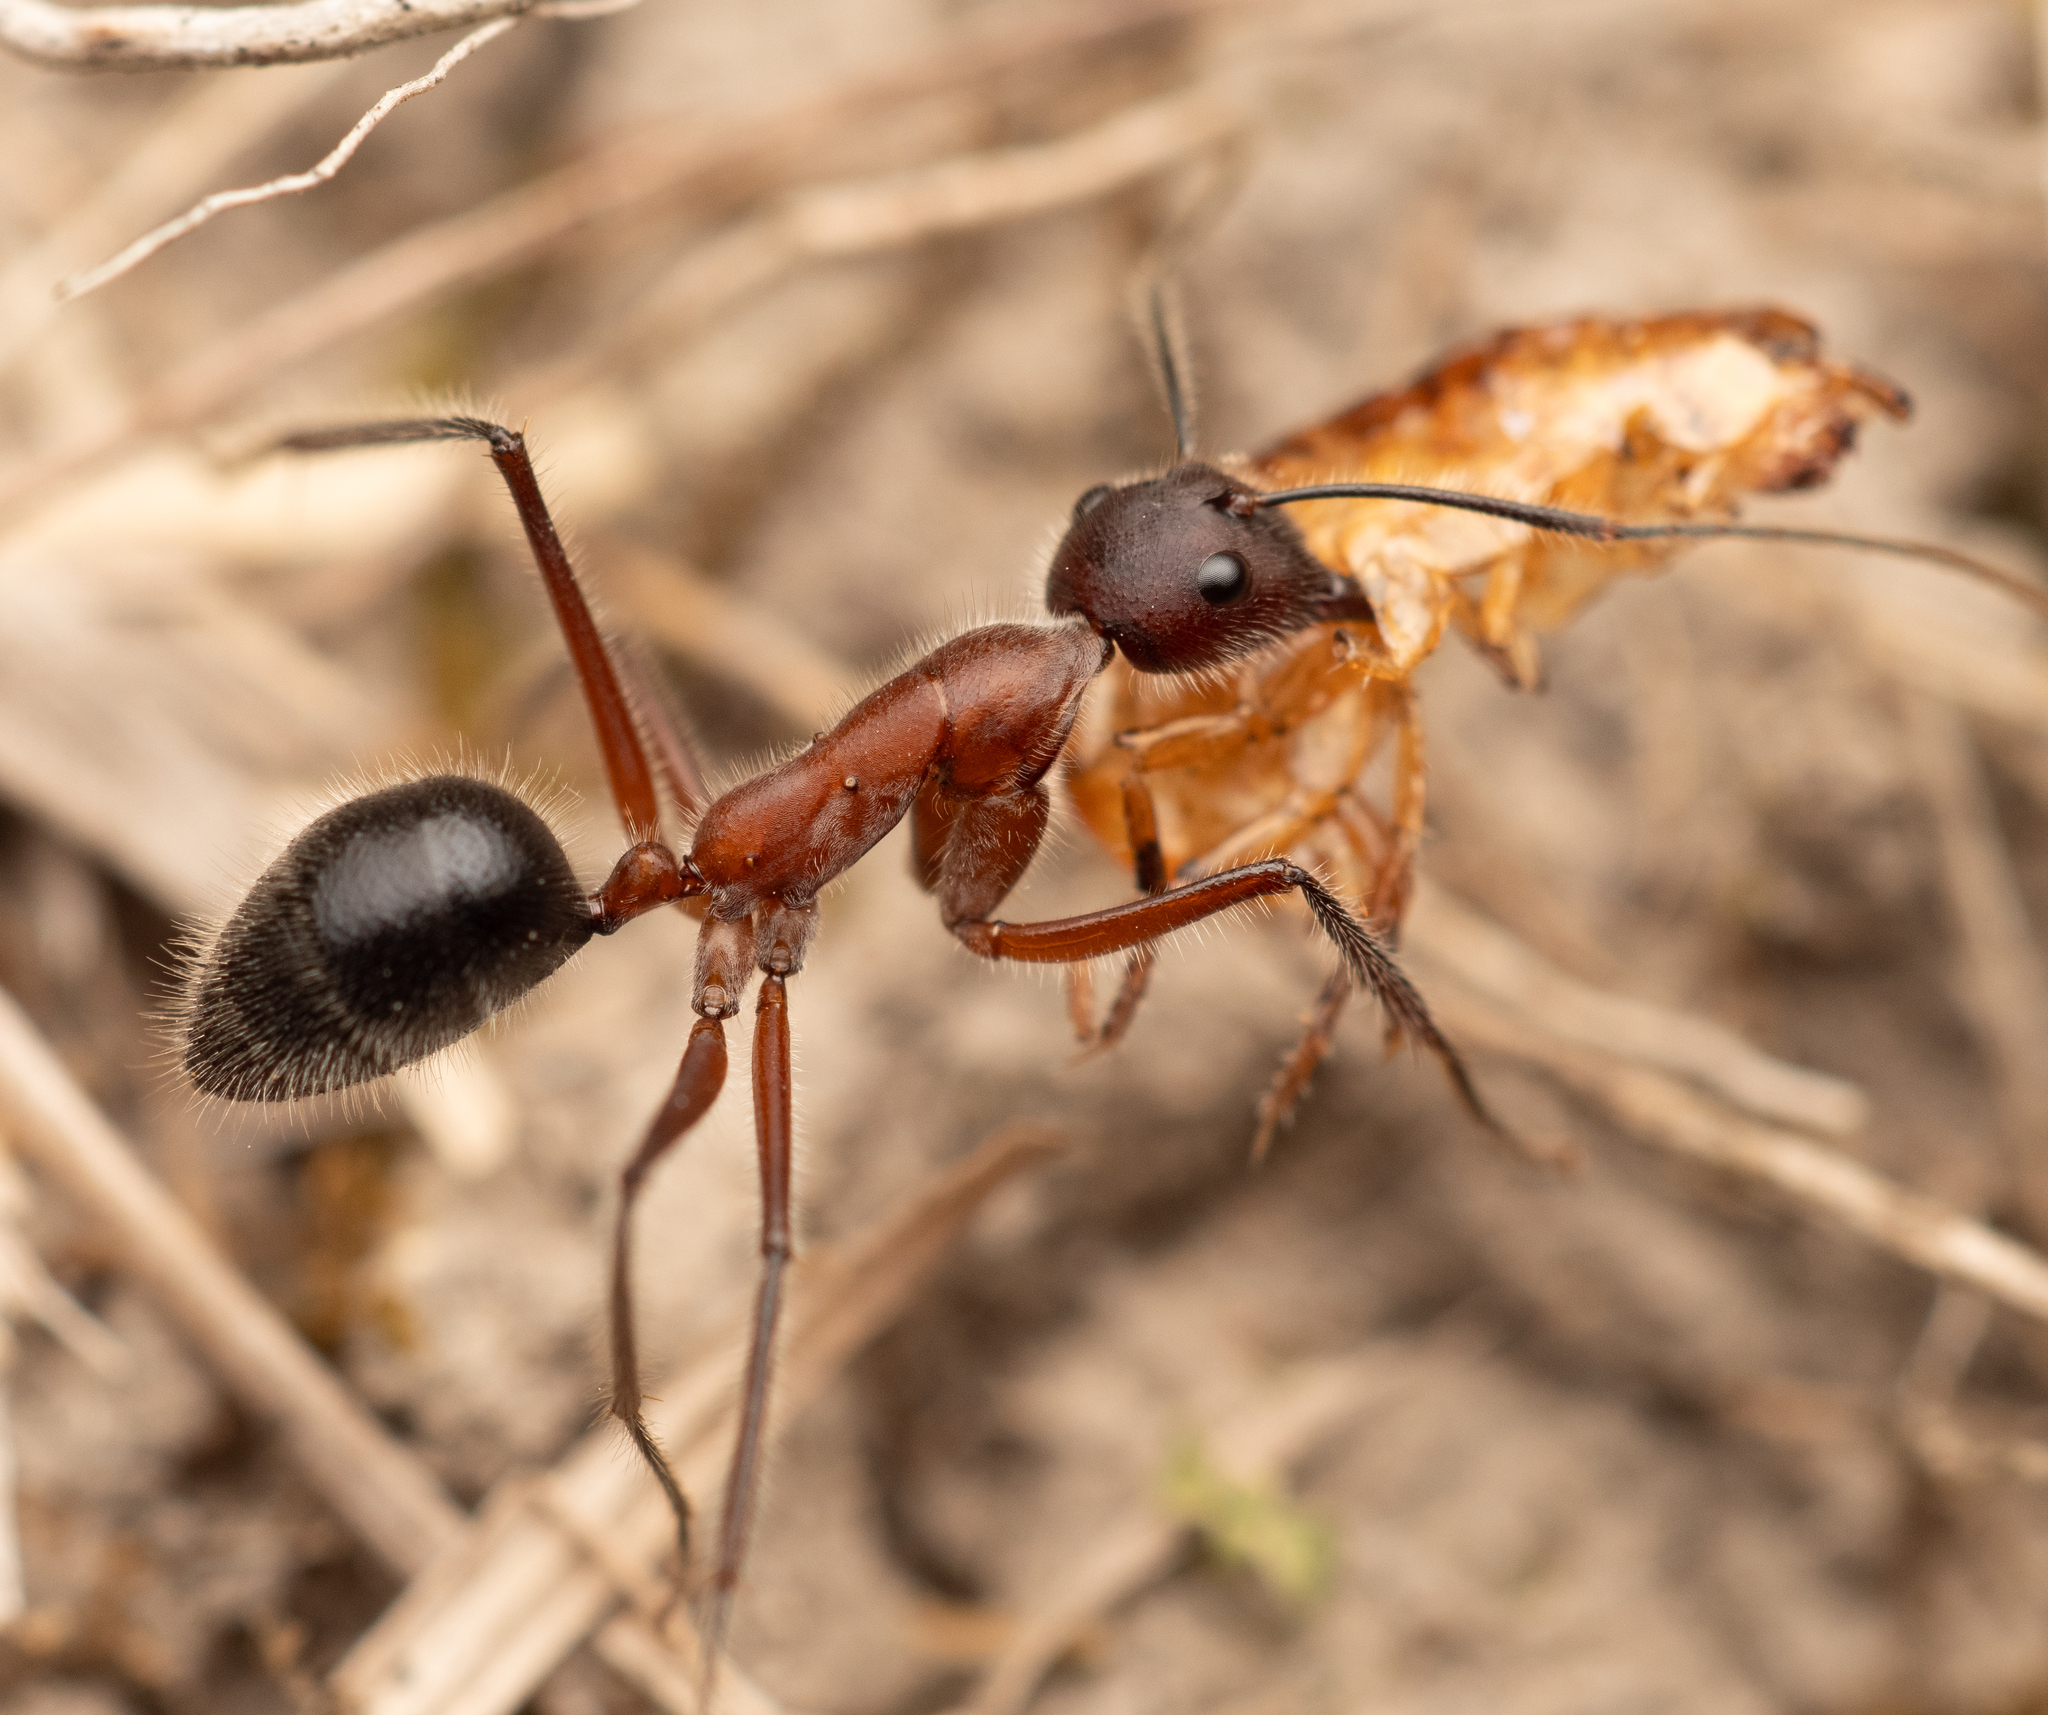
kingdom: Animalia
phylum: Arthropoda
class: Insecta
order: Hymenoptera
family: Formicidae
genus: Camponotus
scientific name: Camponotus intrepidus
